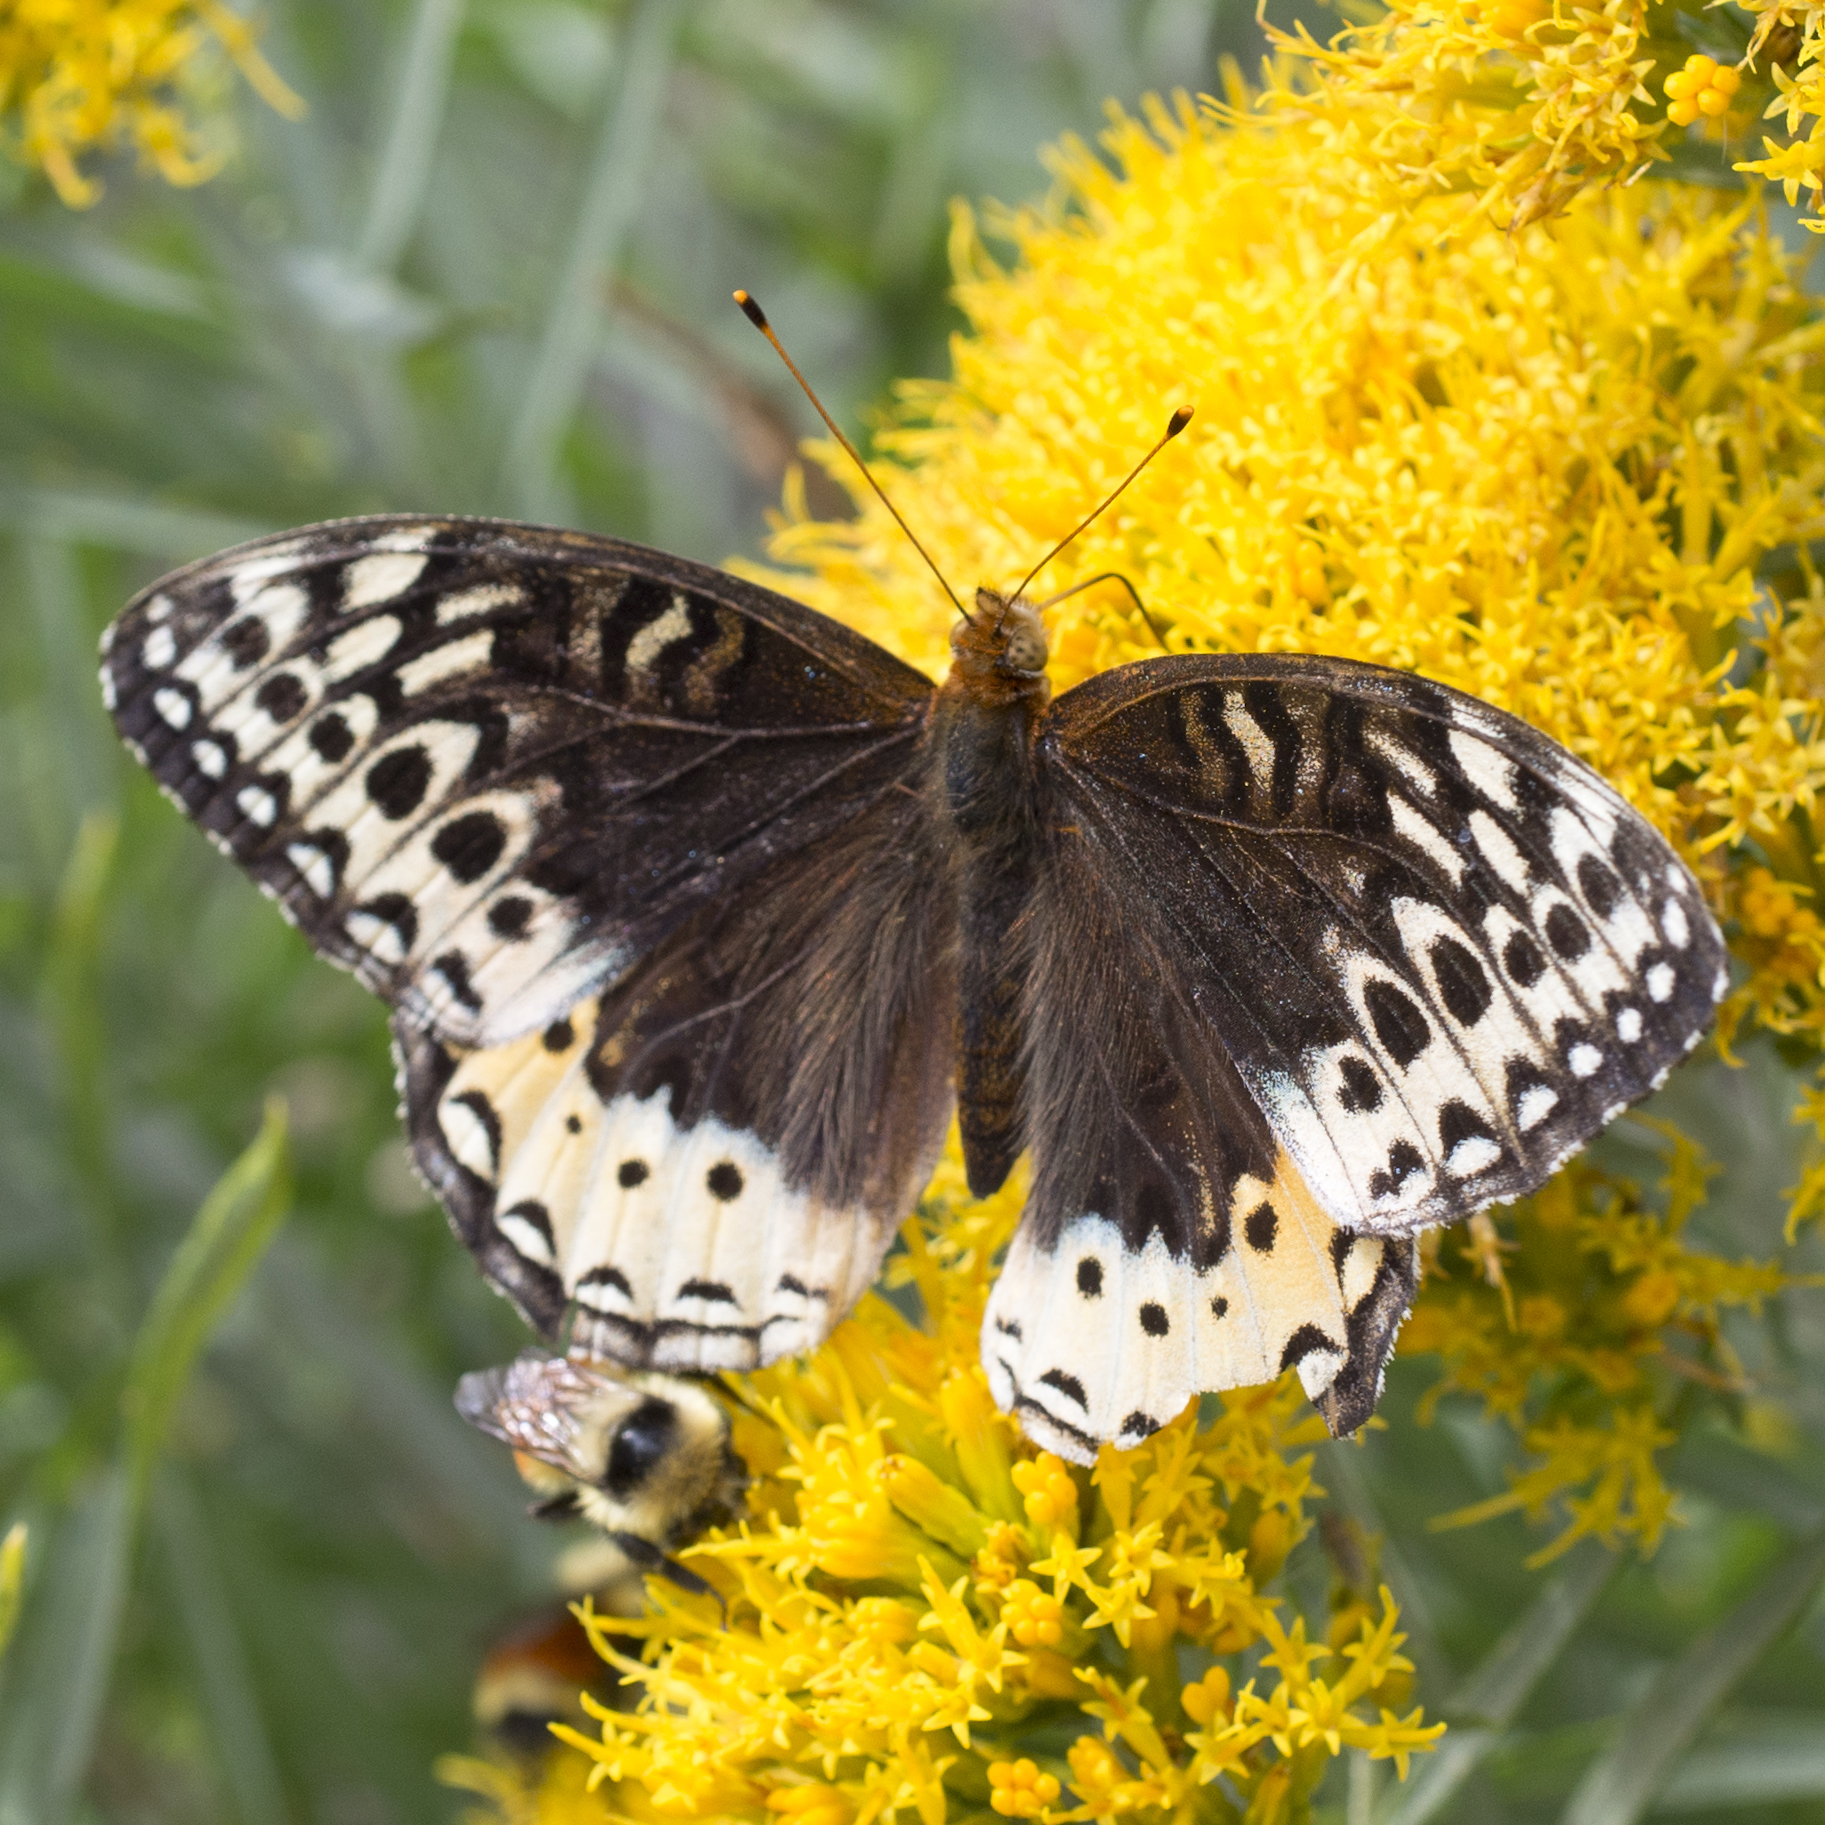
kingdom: Animalia
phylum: Arthropoda
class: Insecta
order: Lepidoptera
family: Nymphalidae
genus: Speyeria
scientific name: Speyeria cybele
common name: Great spangled fritillary
